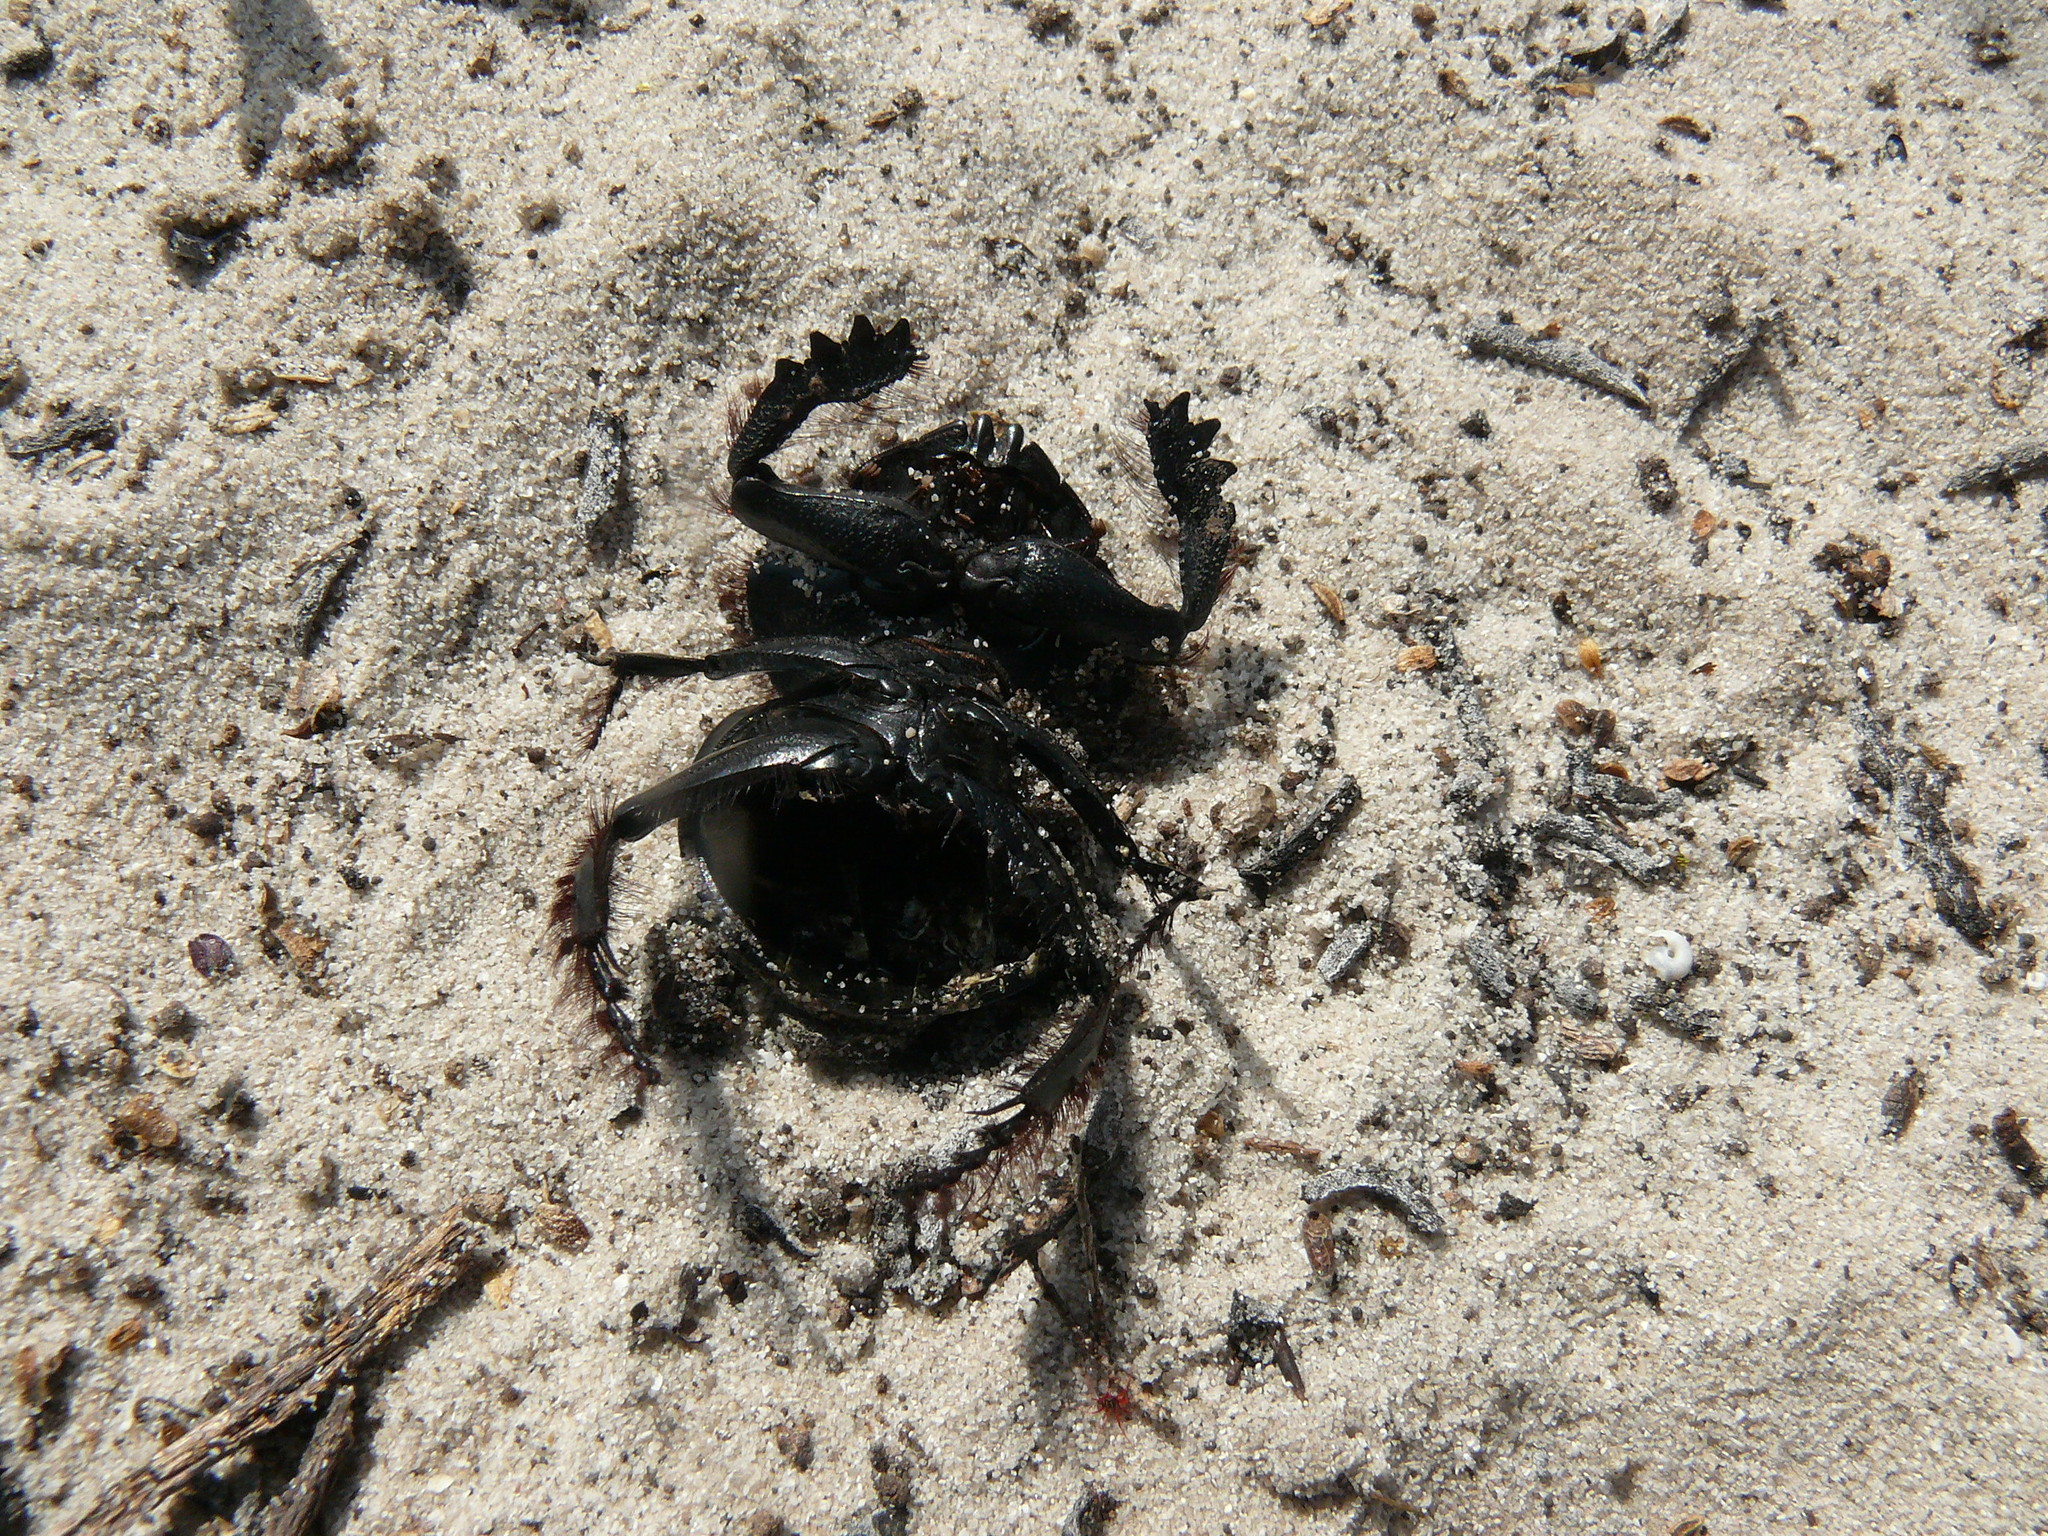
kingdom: Animalia
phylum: Arthropoda
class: Insecta
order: Coleoptera
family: Scarabaeidae
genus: Pachysoma
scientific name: Pachysoma hippocrates
